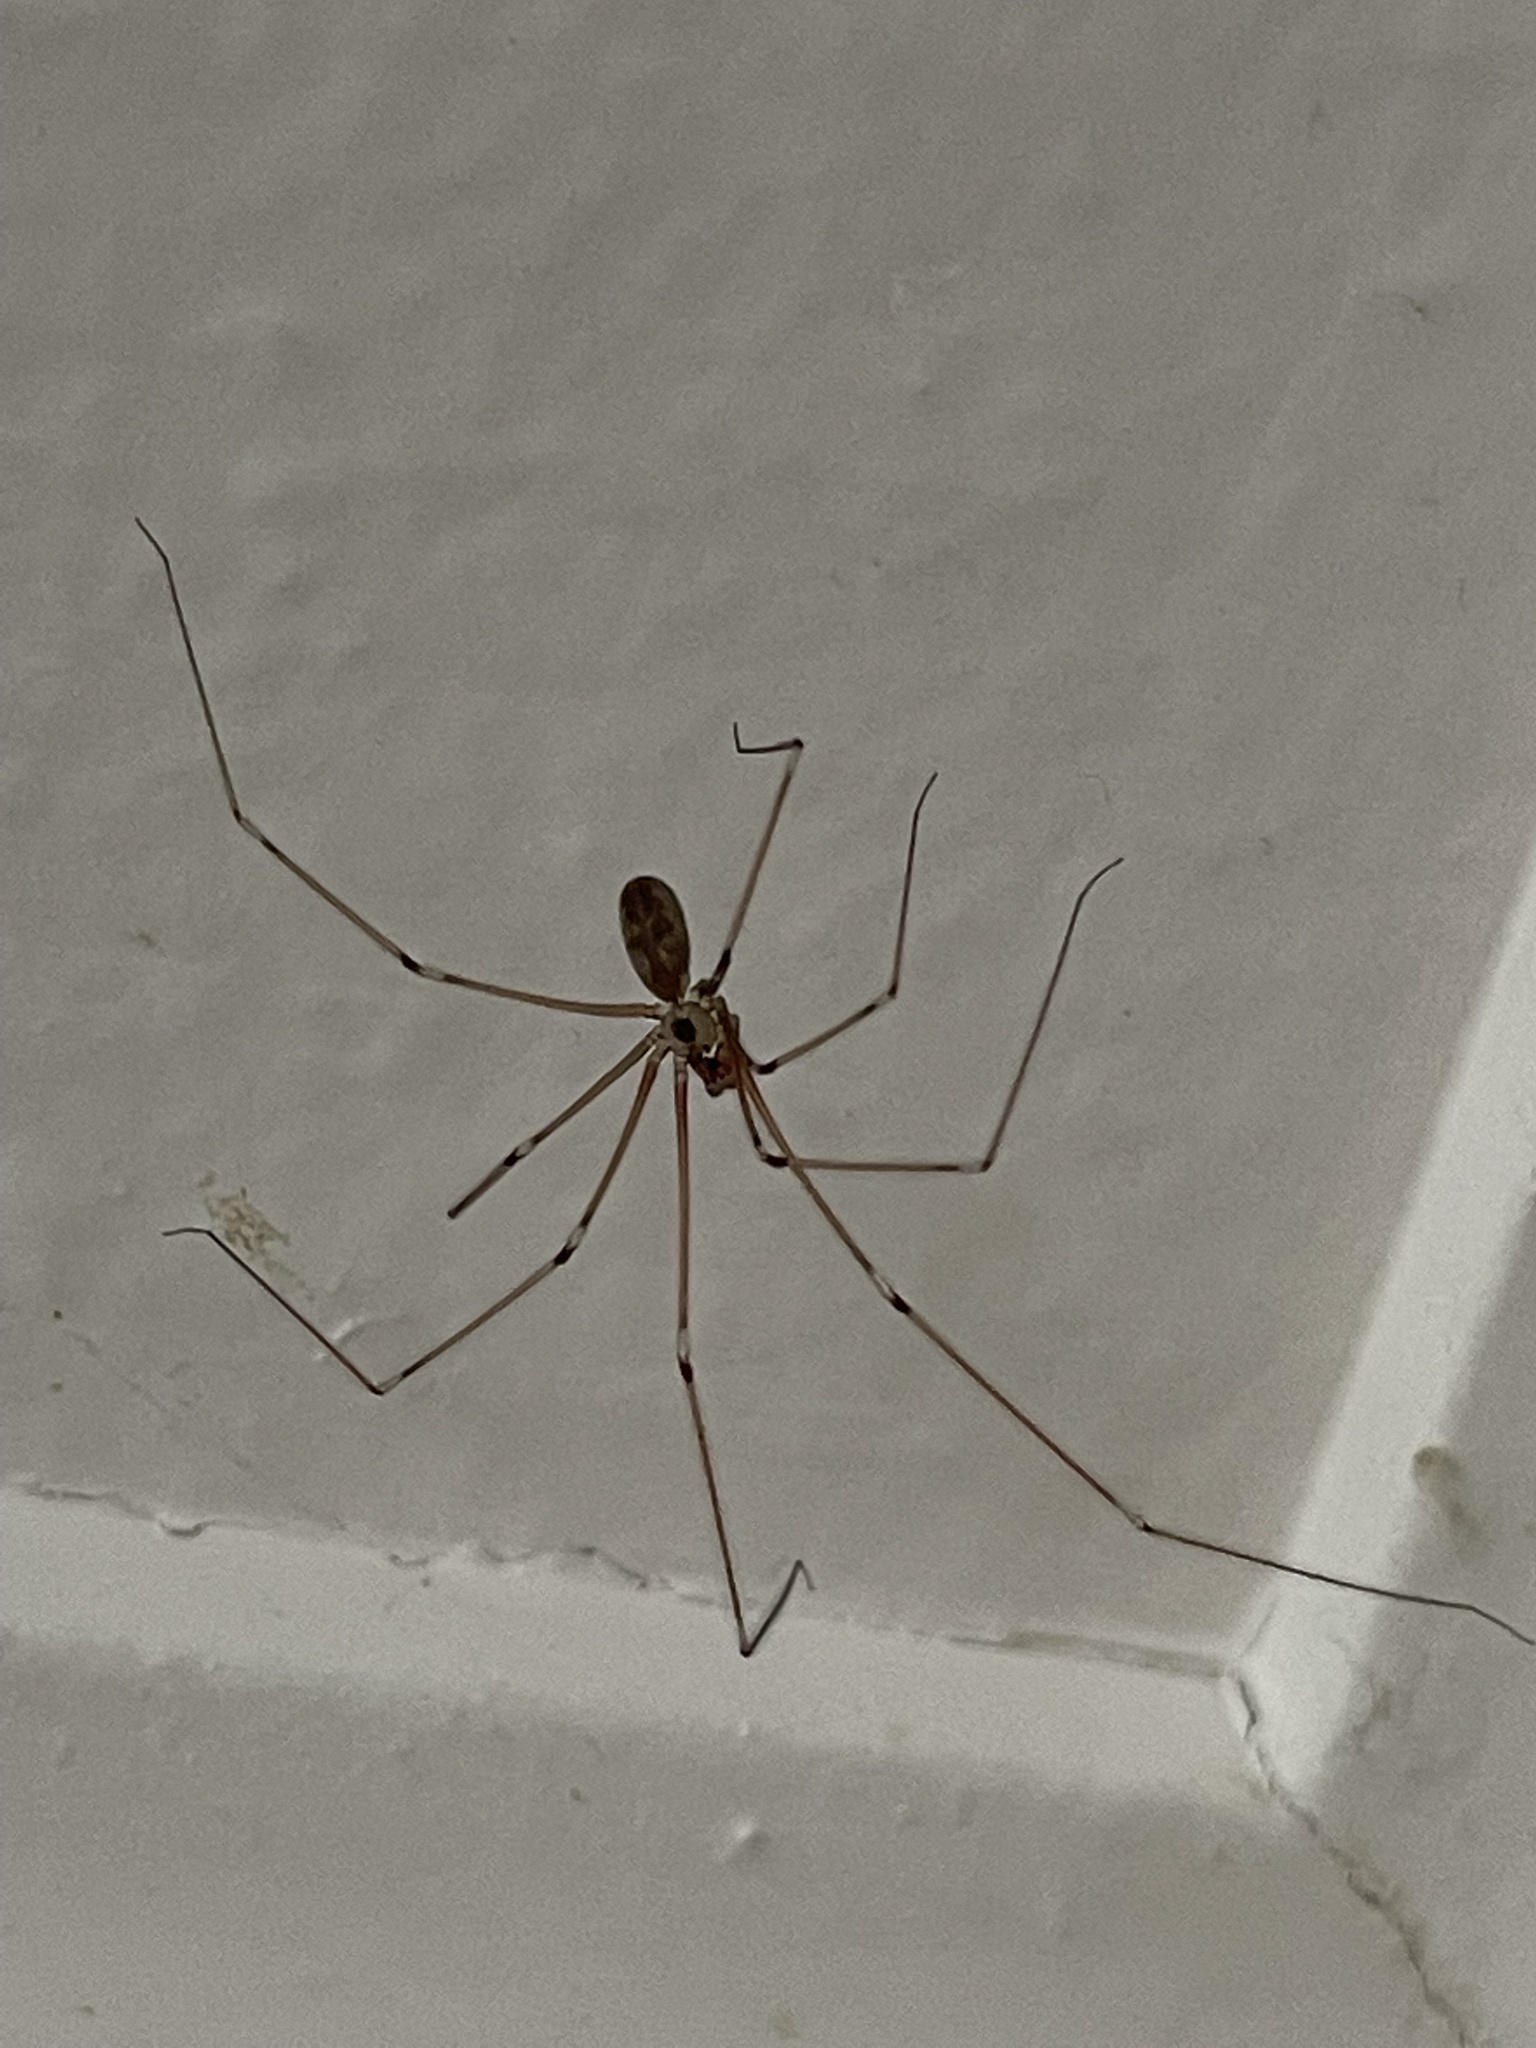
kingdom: Animalia
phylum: Arthropoda
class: Arachnida
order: Araneae
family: Pholcidae
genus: Pholcus
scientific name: Pholcus phalangioides
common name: Longbodied cellar spider
